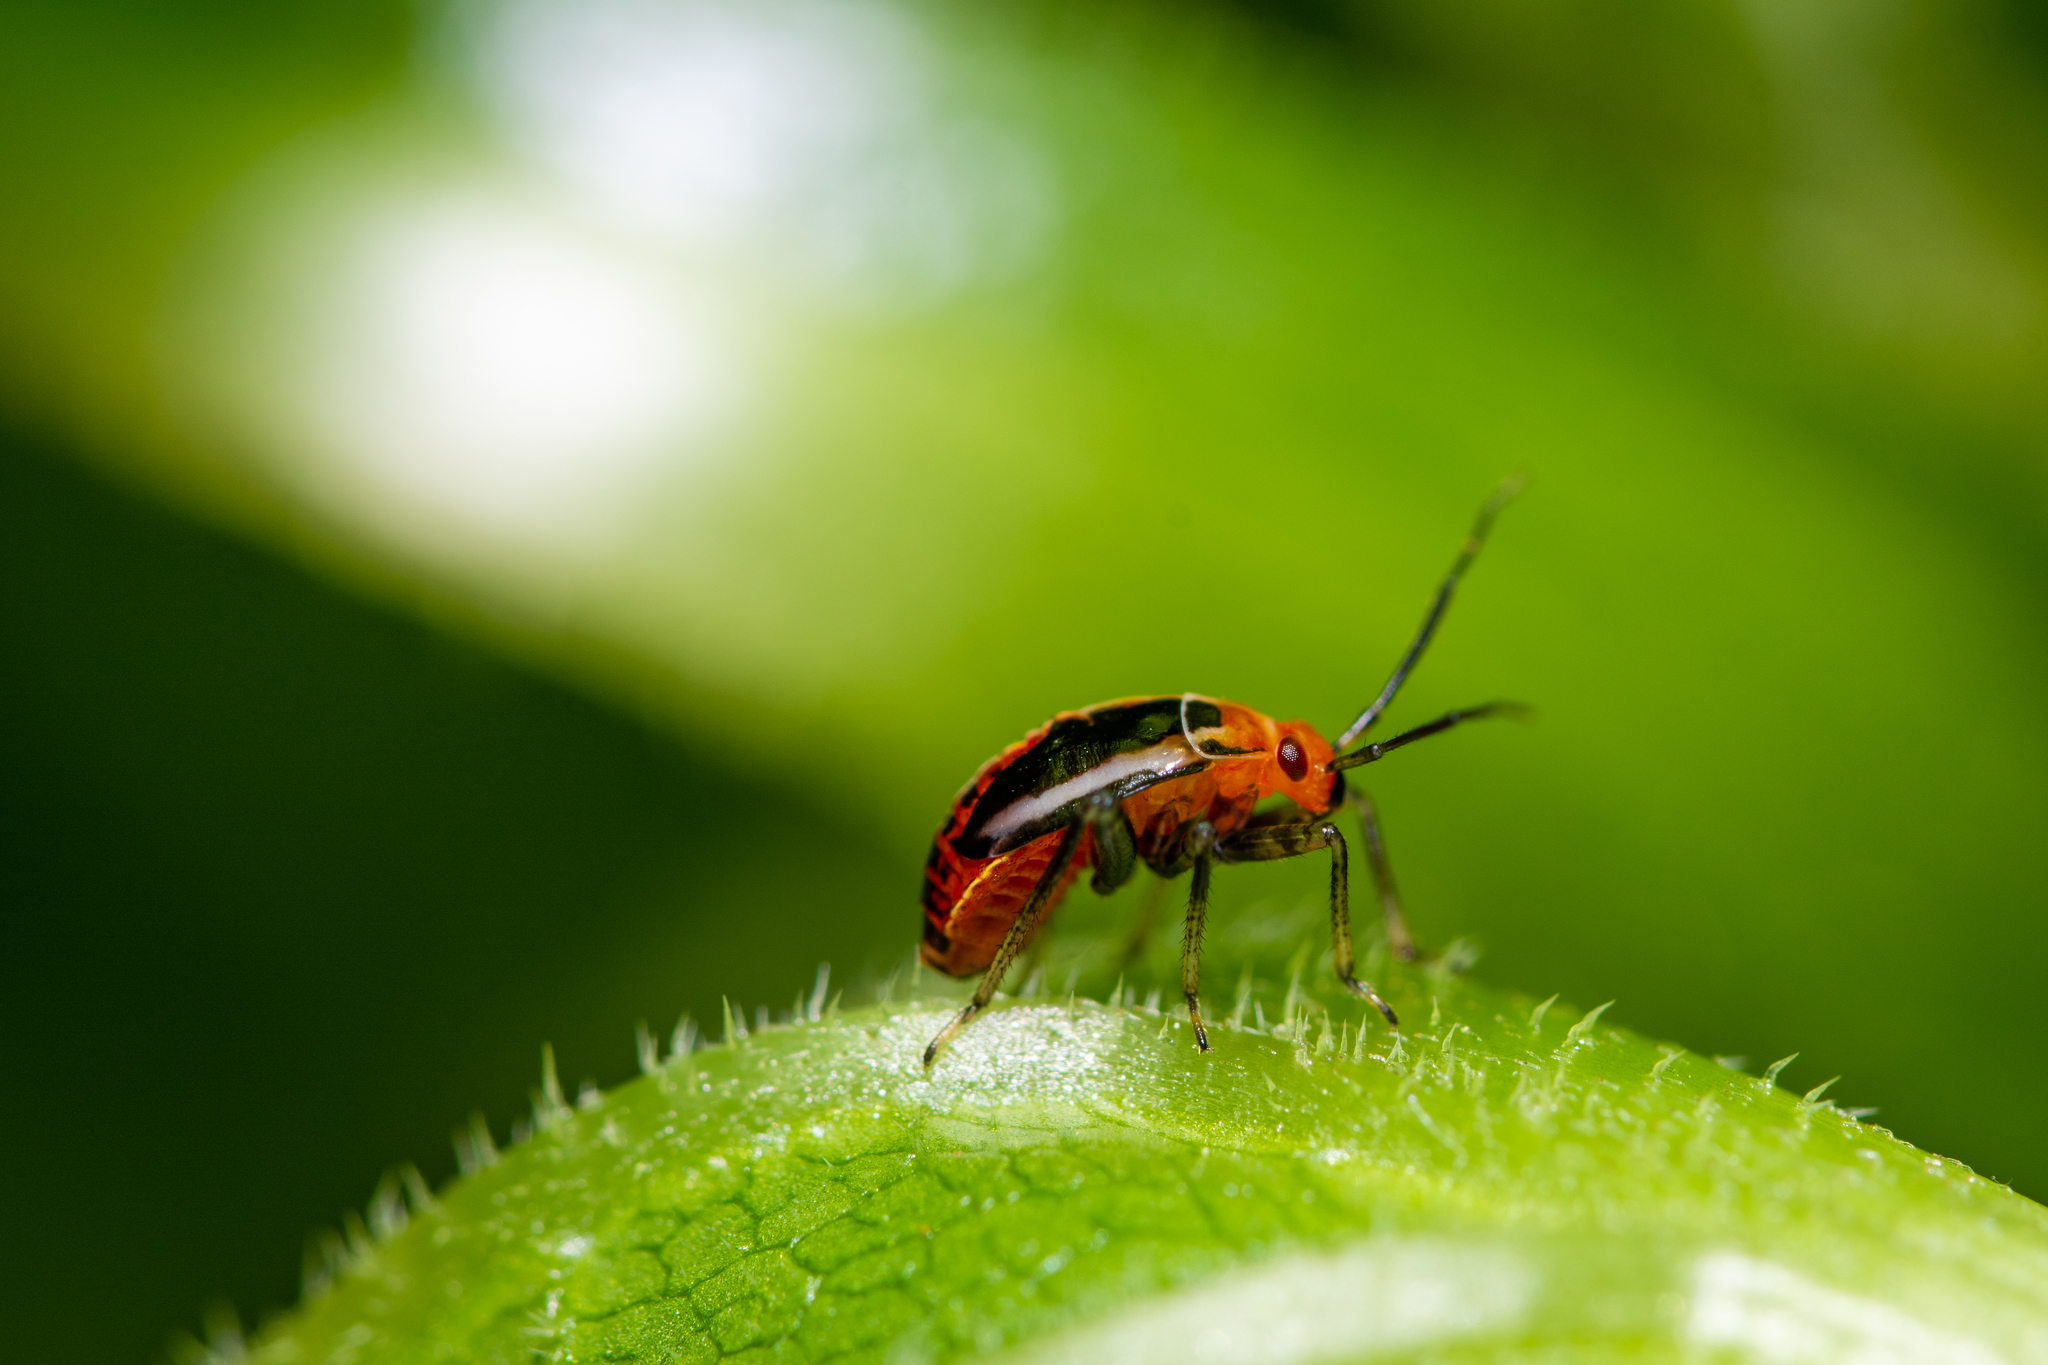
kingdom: Animalia
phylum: Arthropoda
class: Insecta
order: Hemiptera
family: Miridae
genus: Poecilocapsus
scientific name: Poecilocapsus lineatus
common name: Four-lined plant bug
